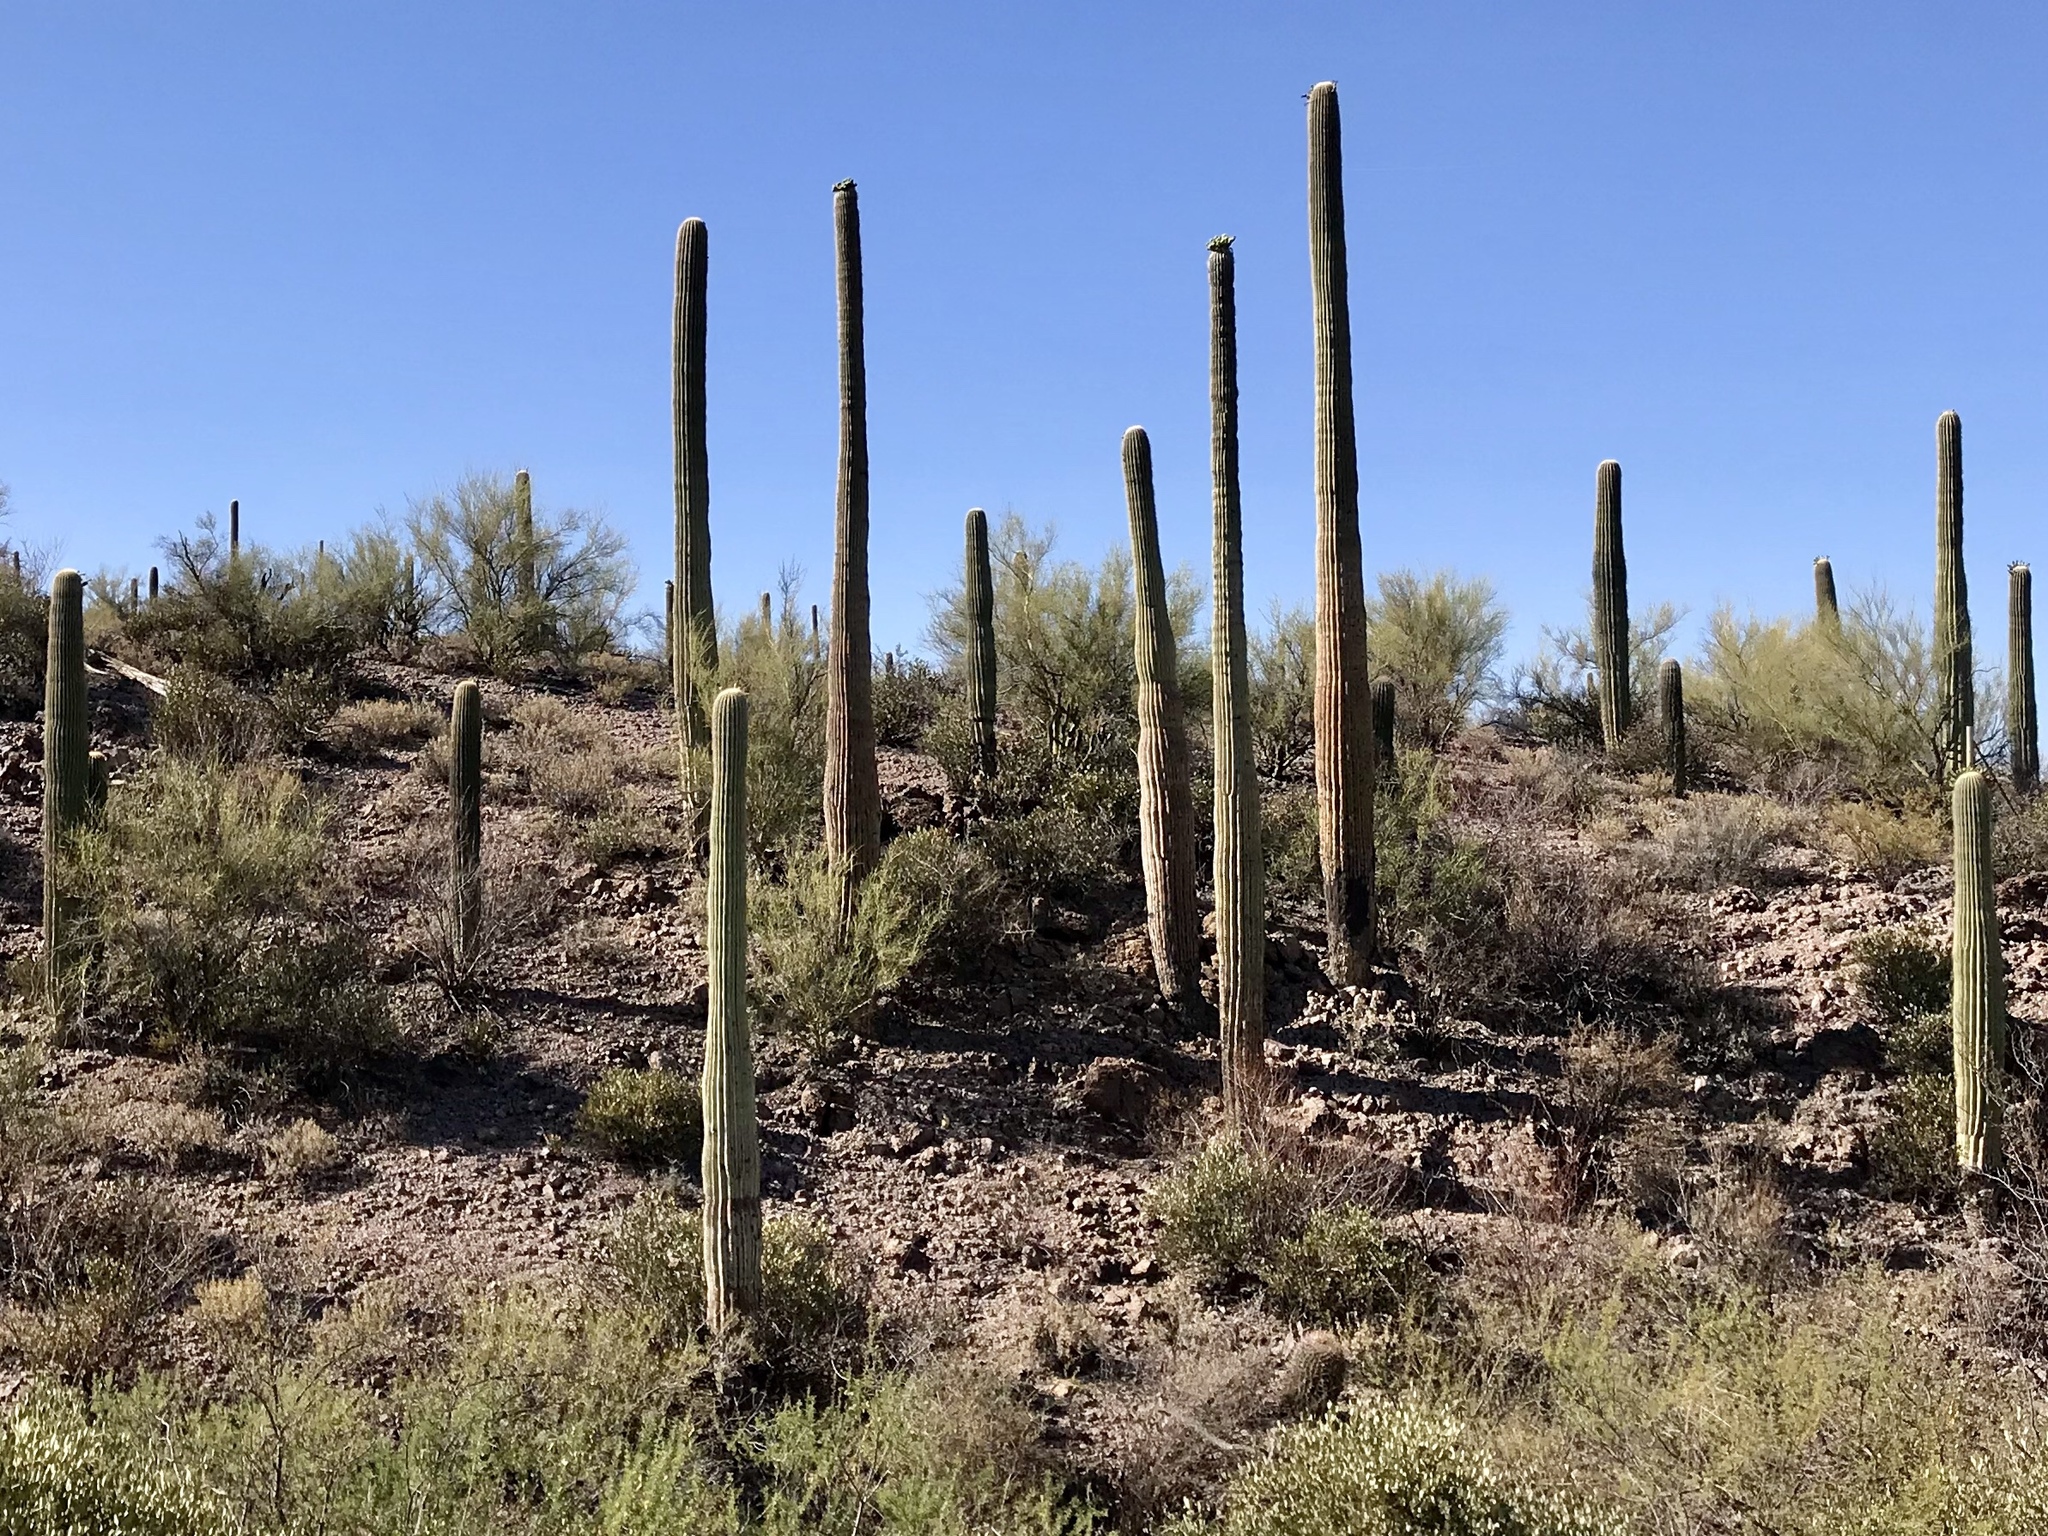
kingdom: Plantae
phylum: Tracheophyta
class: Magnoliopsida
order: Caryophyllales
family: Cactaceae
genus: Carnegiea
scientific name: Carnegiea gigantea
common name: Saguaro
